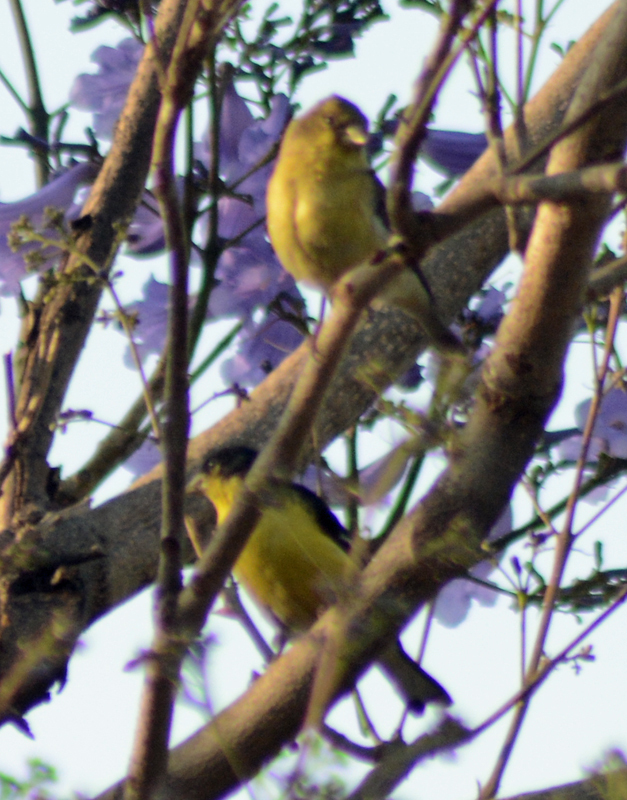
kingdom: Animalia
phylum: Chordata
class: Aves
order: Passeriformes
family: Fringillidae
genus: Spinus
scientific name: Spinus psaltria
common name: Lesser goldfinch
